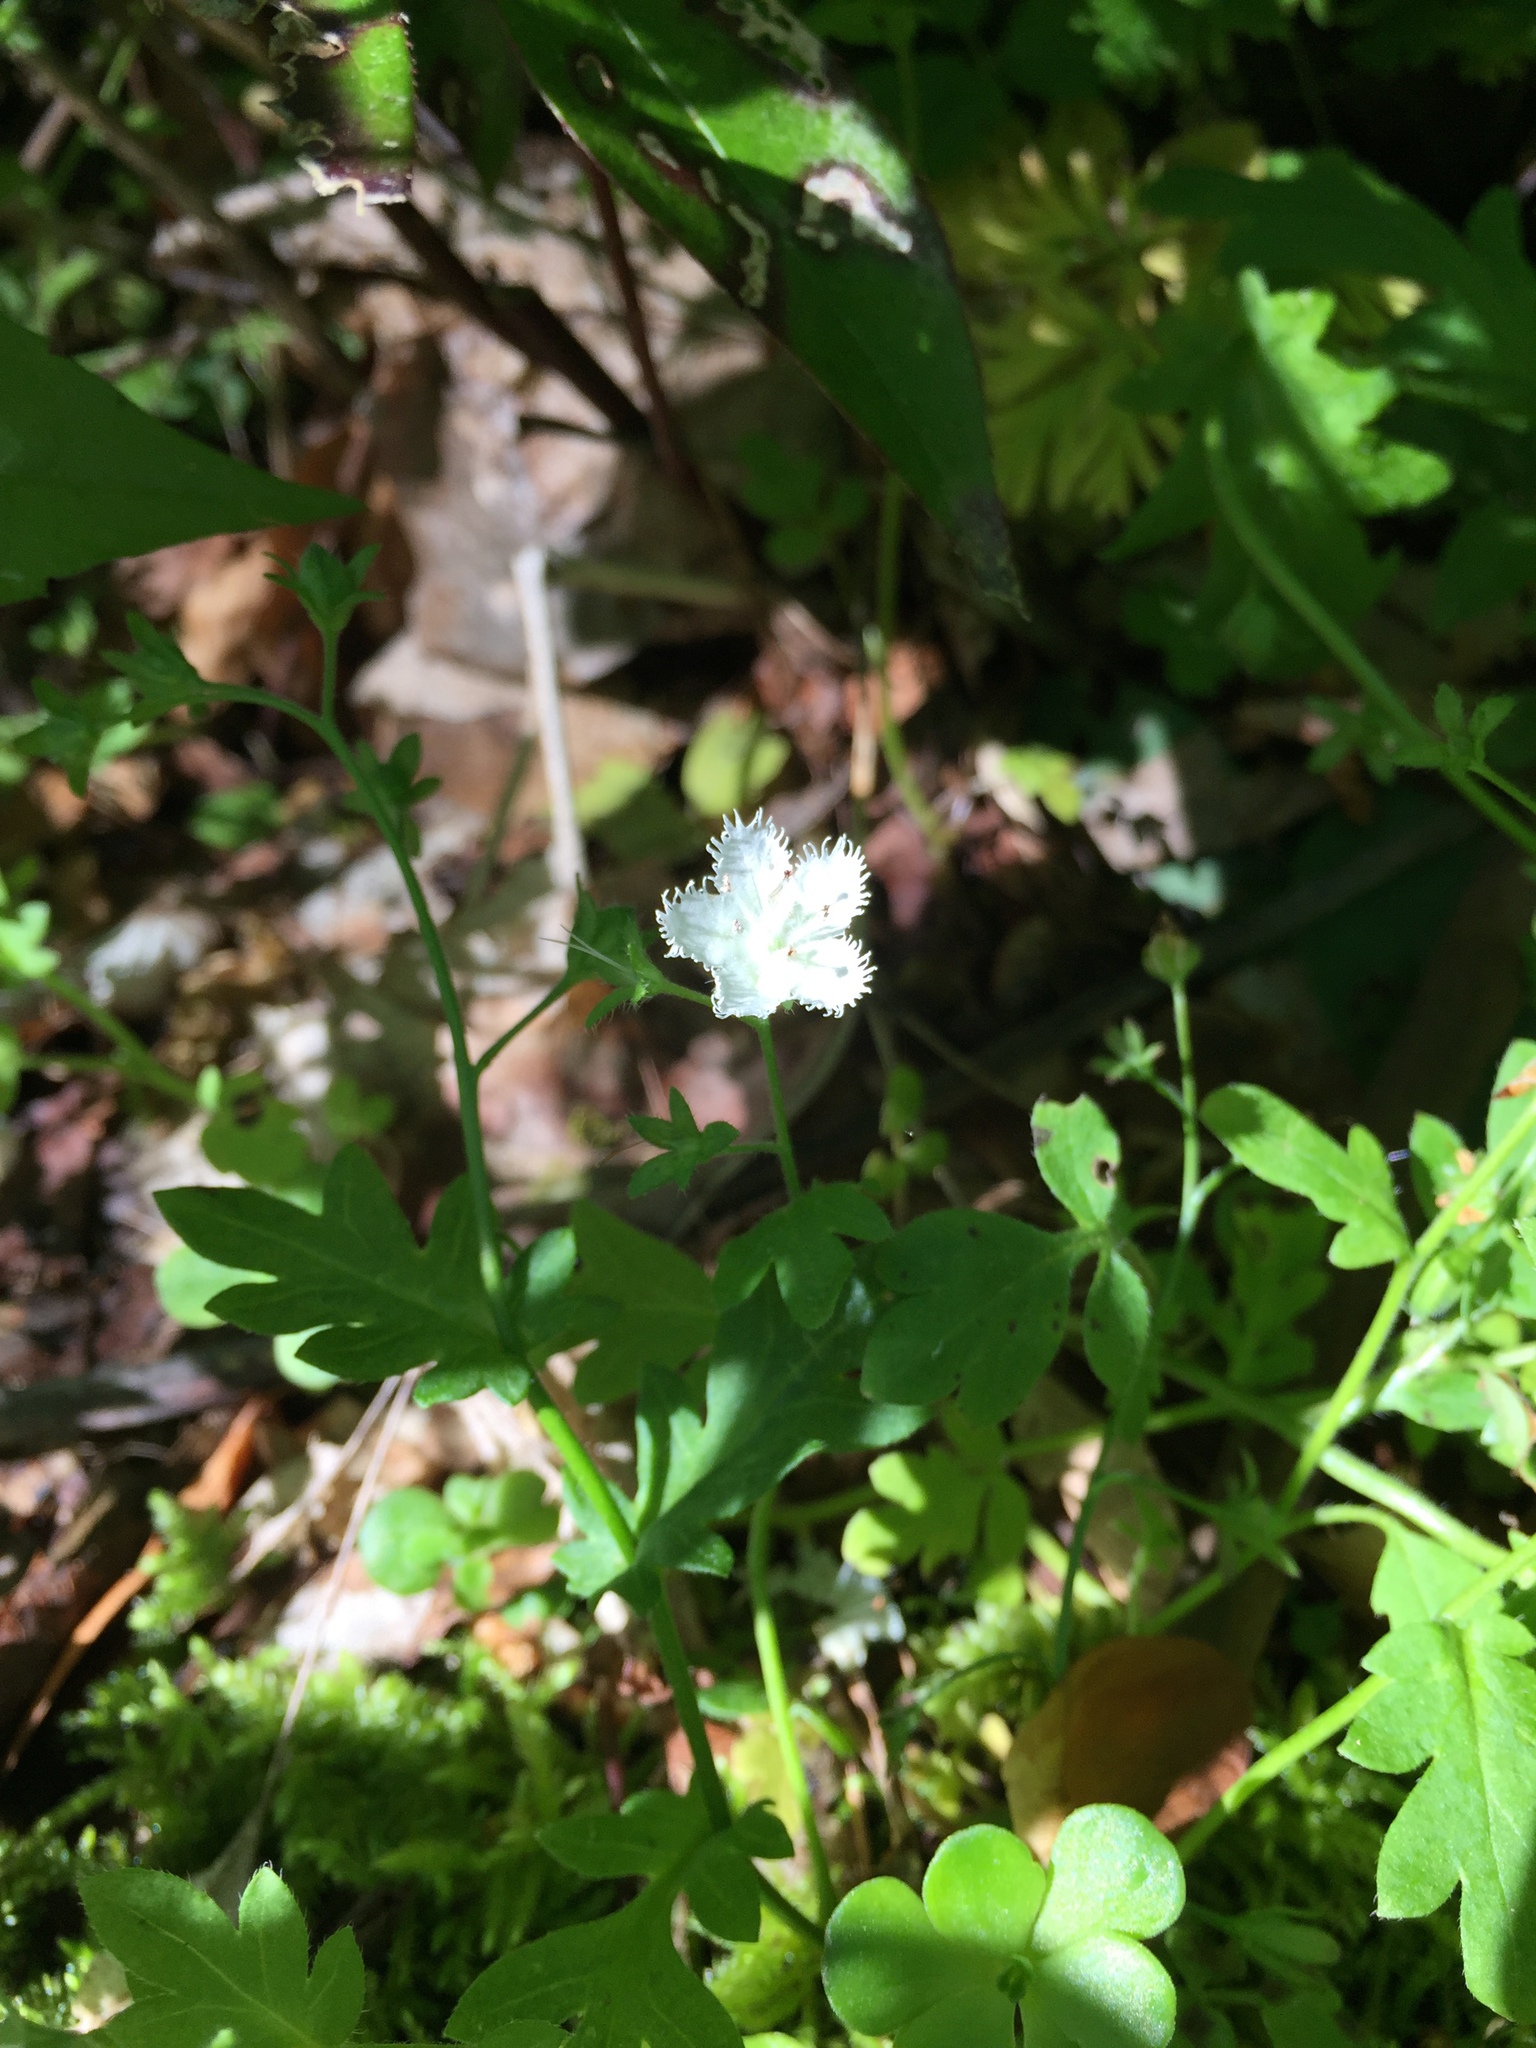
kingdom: Plantae
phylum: Tracheophyta
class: Magnoliopsida
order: Boraginales
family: Hydrophyllaceae
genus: Phacelia
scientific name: Phacelia fimbriata
